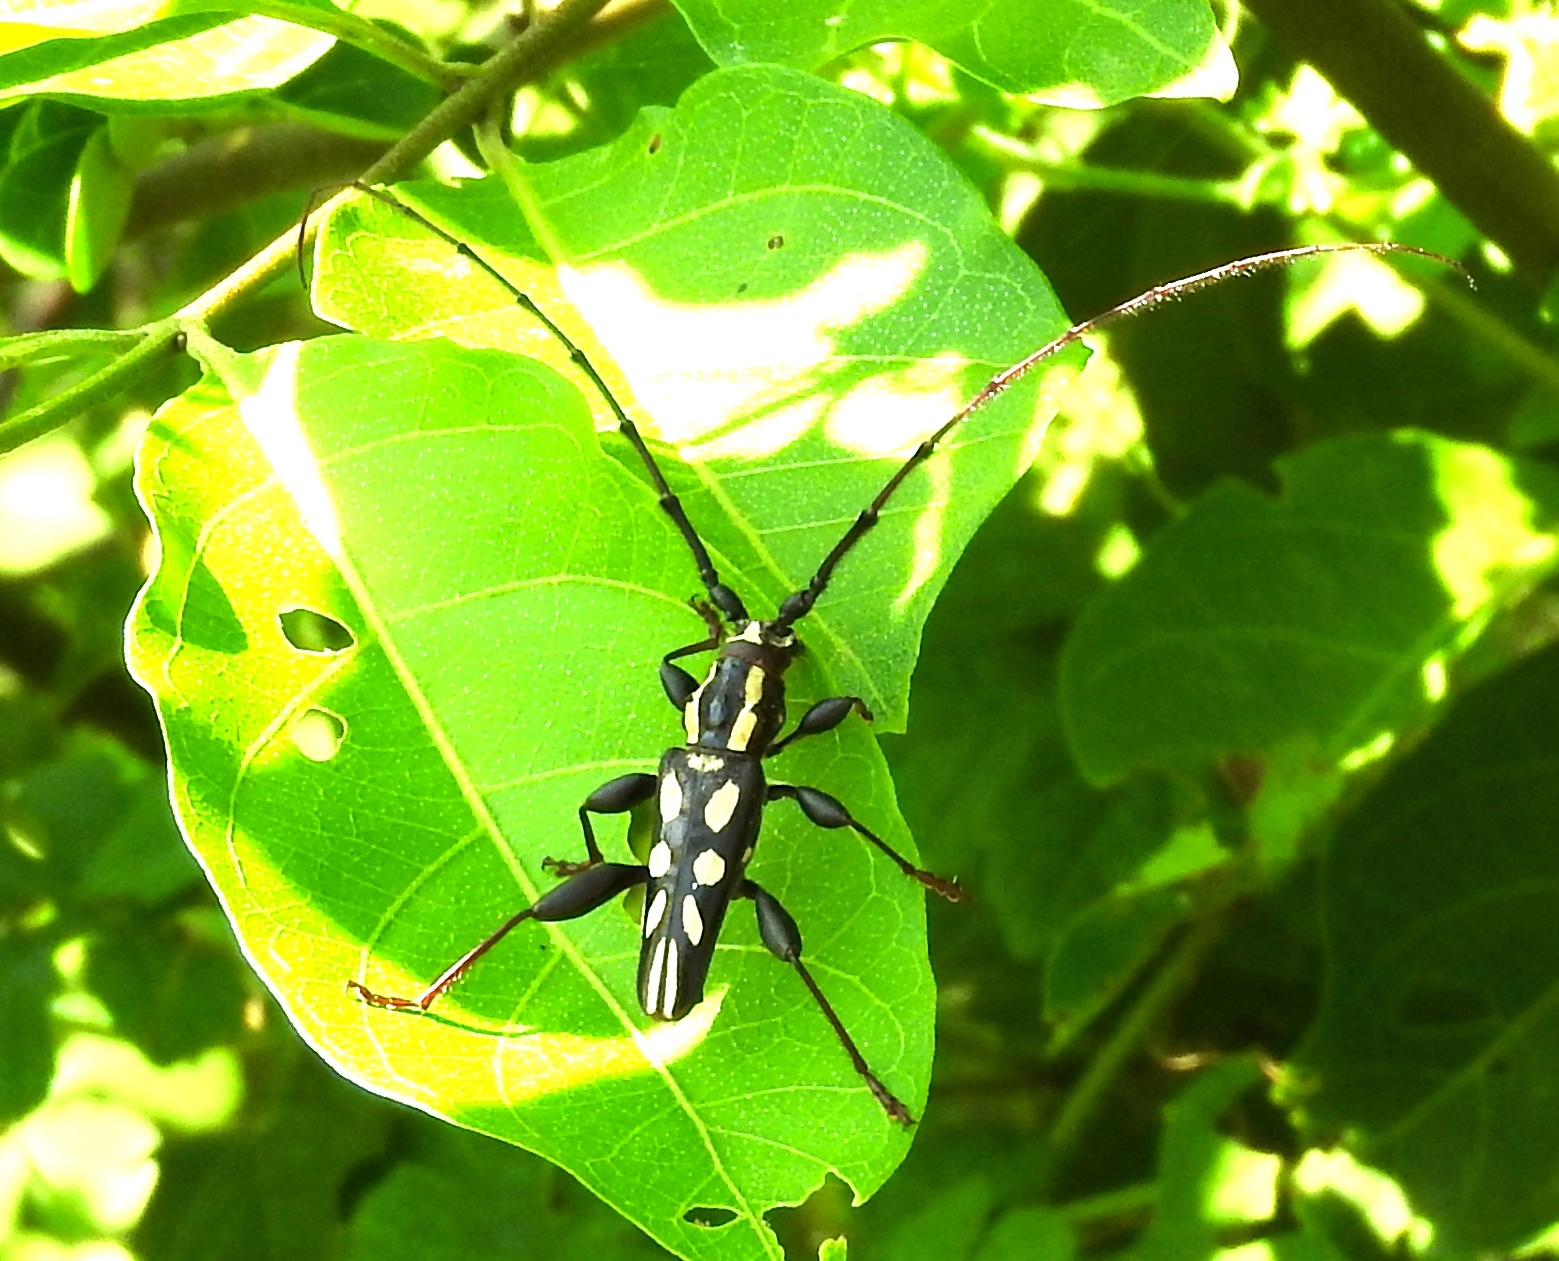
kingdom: Animalia
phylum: Arthropoda
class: Insecta
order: Coleoptera
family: Cerambycidae
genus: Ornithia
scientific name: Ornithia
